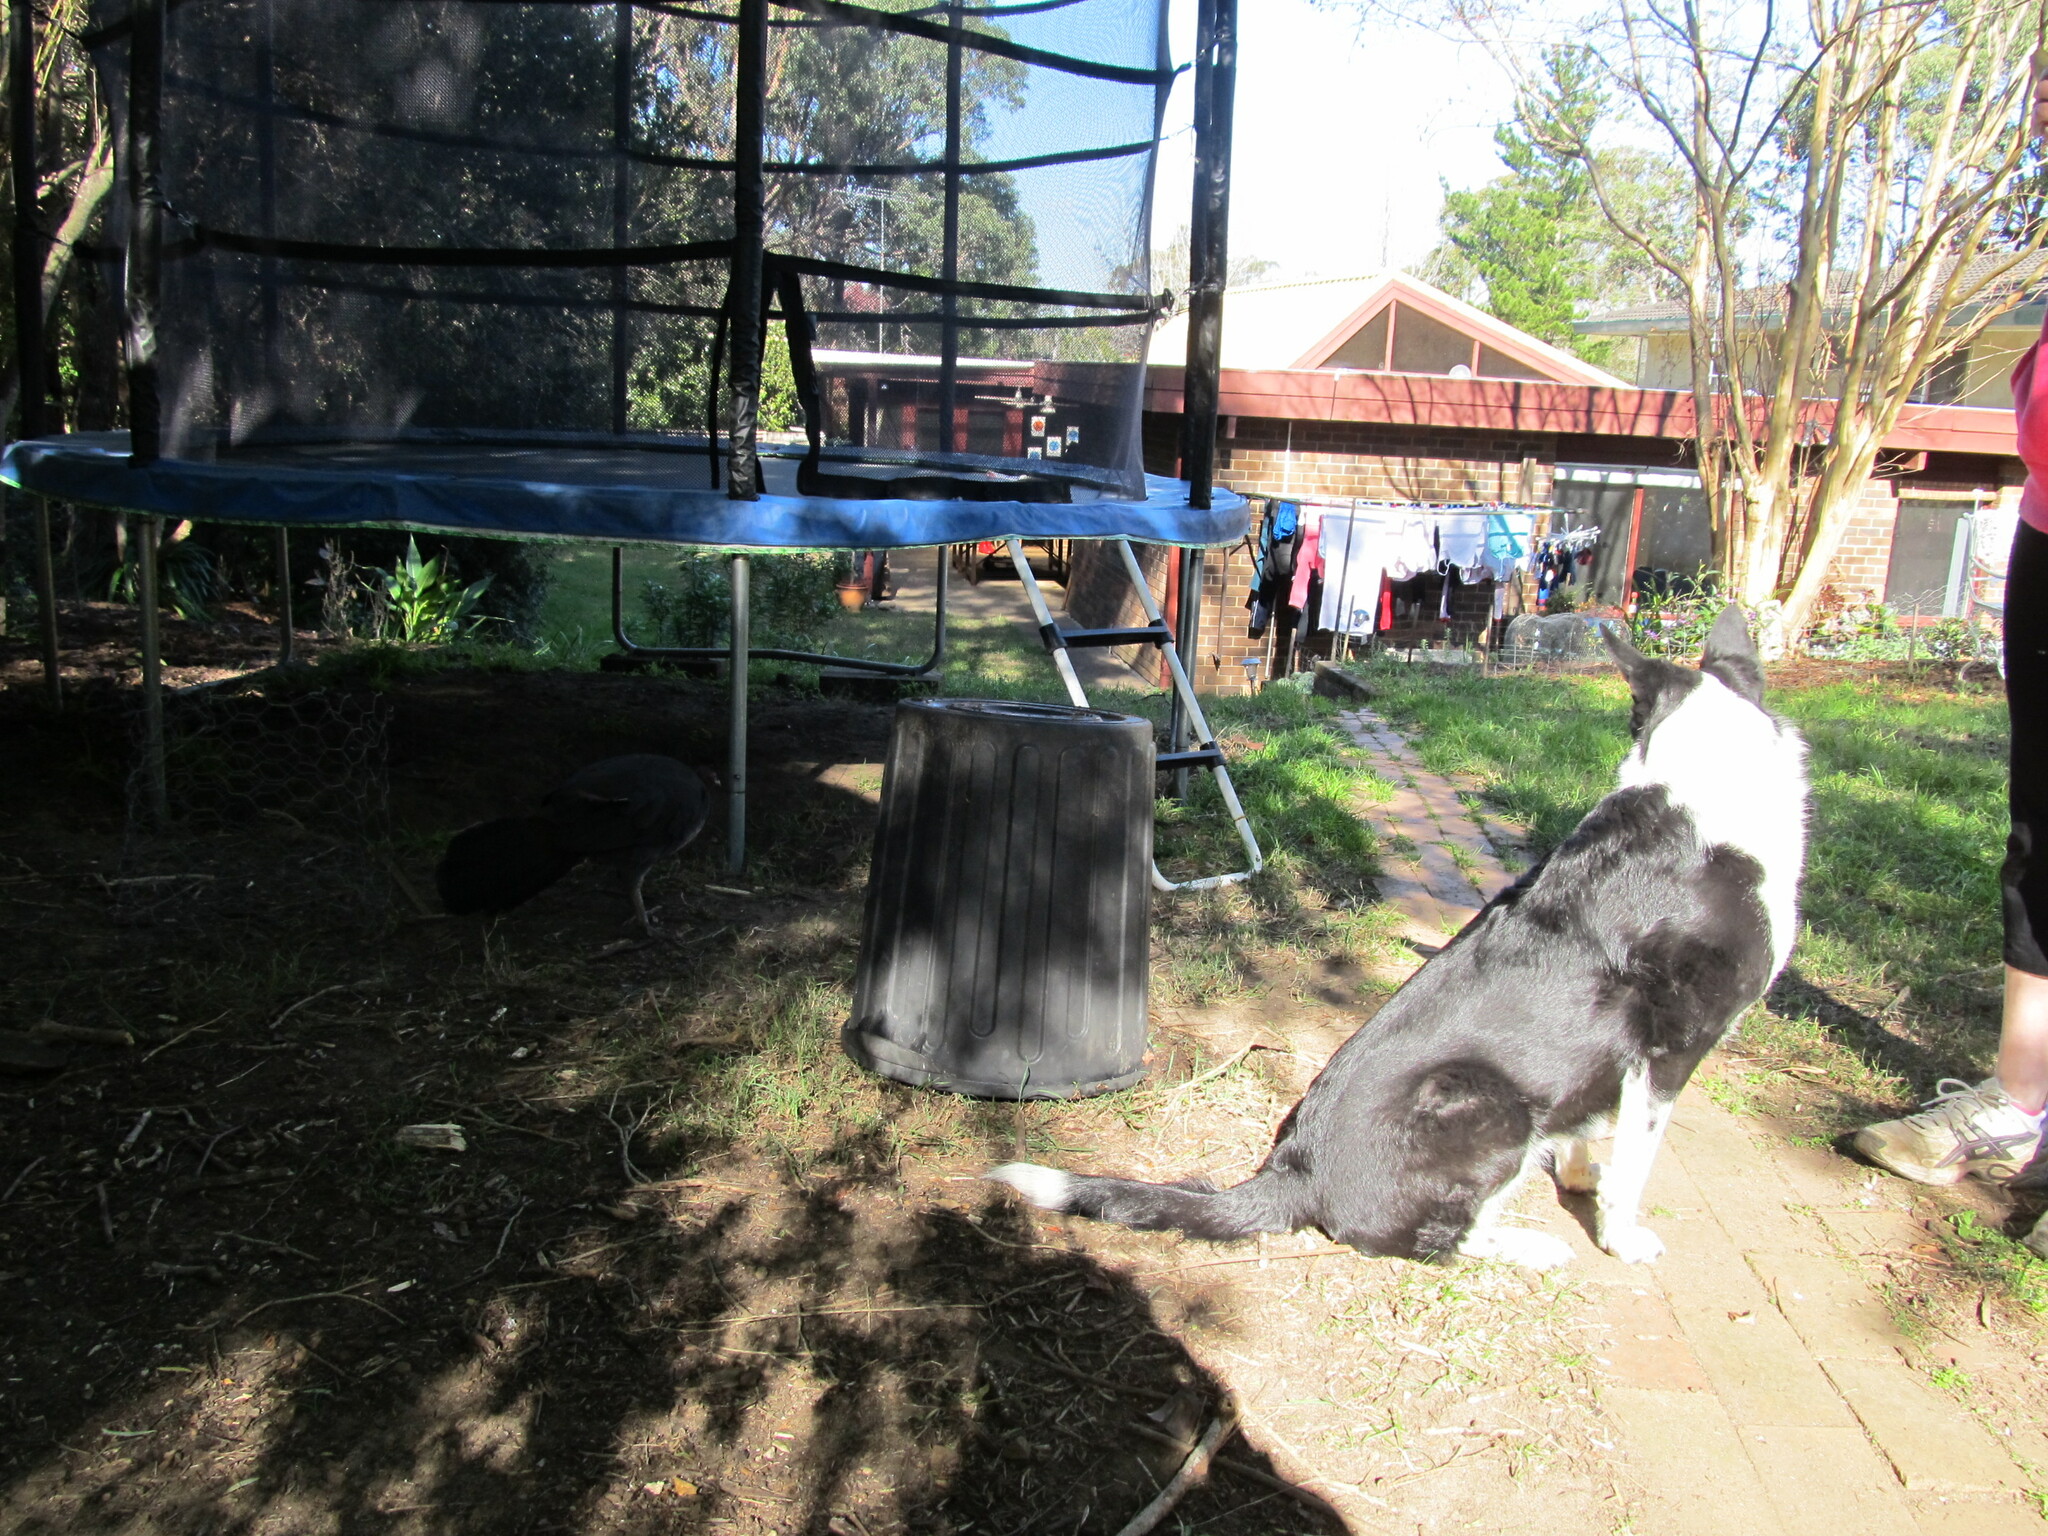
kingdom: Animalia
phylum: Chordata
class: Aves
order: Galliformes
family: Megapodiidae
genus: Alectura
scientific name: Alectura lathami
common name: Australian brushturkey
